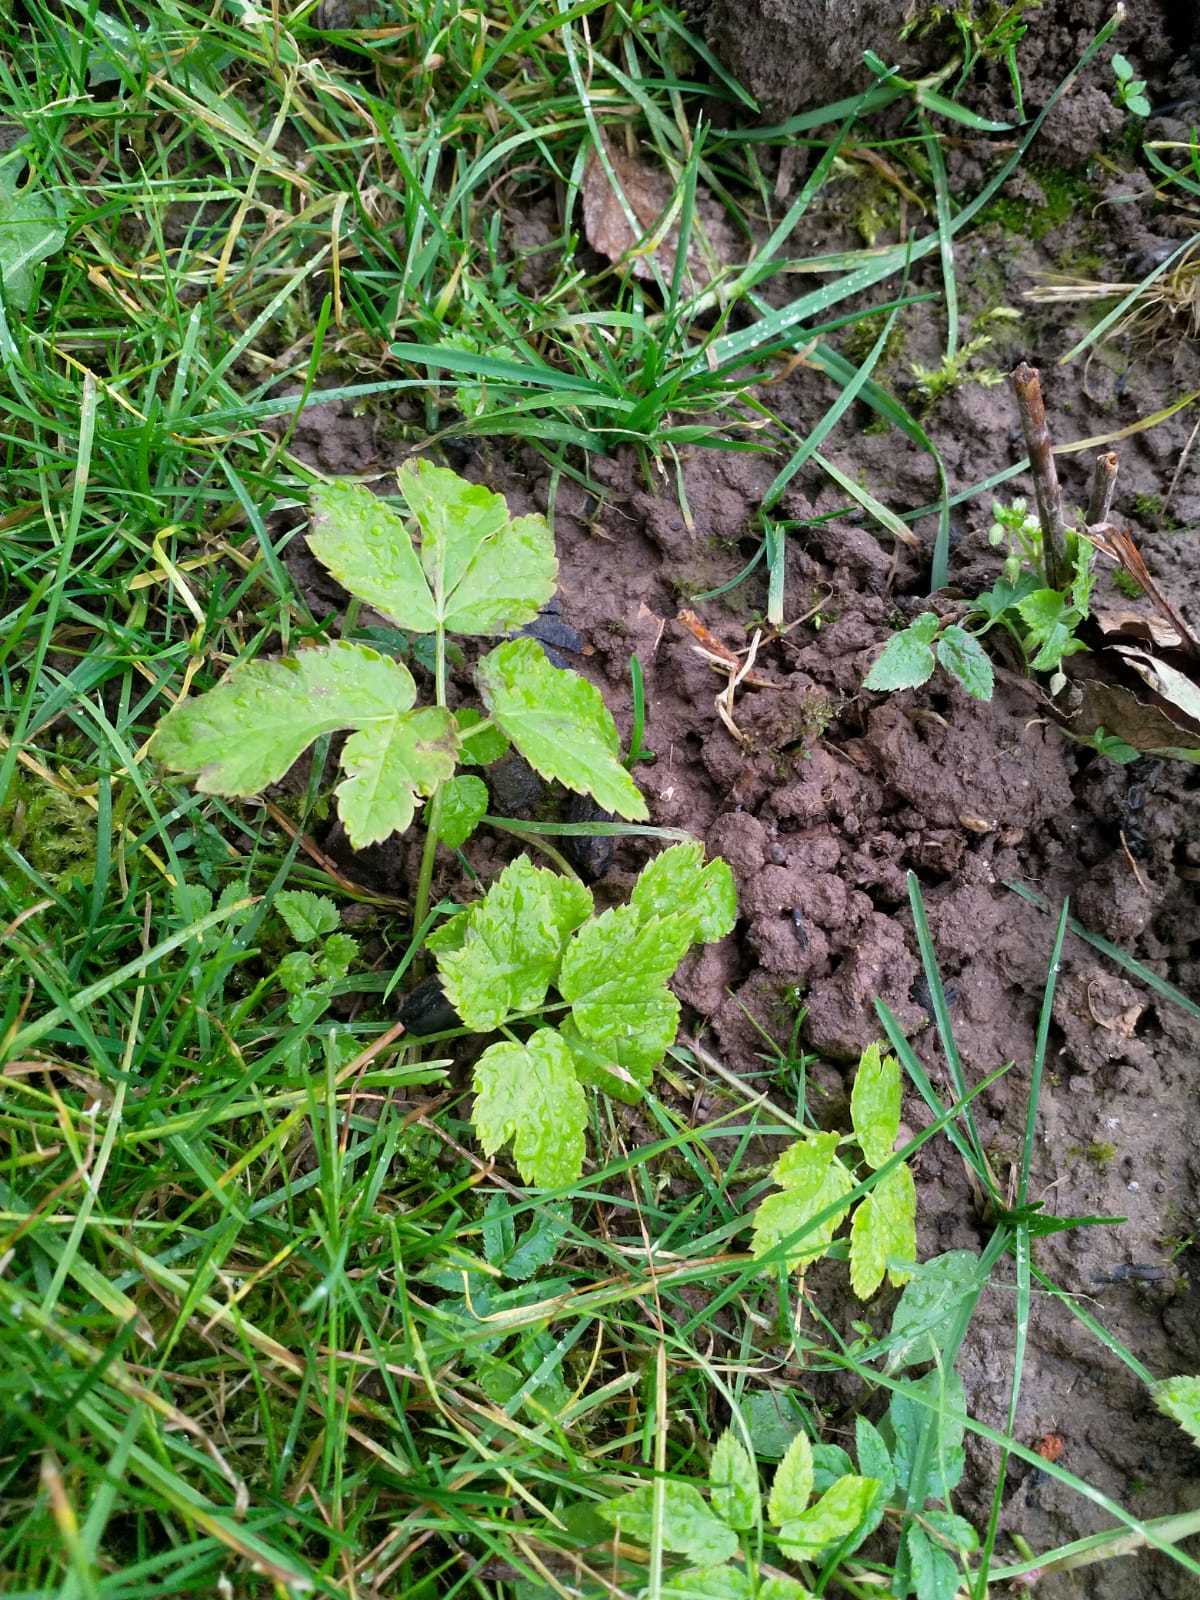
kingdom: Plantae
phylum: Tracheophyta
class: Magnoliopsida
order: Apiales
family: Apiaceae
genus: Aegopodium
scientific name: Aegopodium podagraria
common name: Ground-elder
